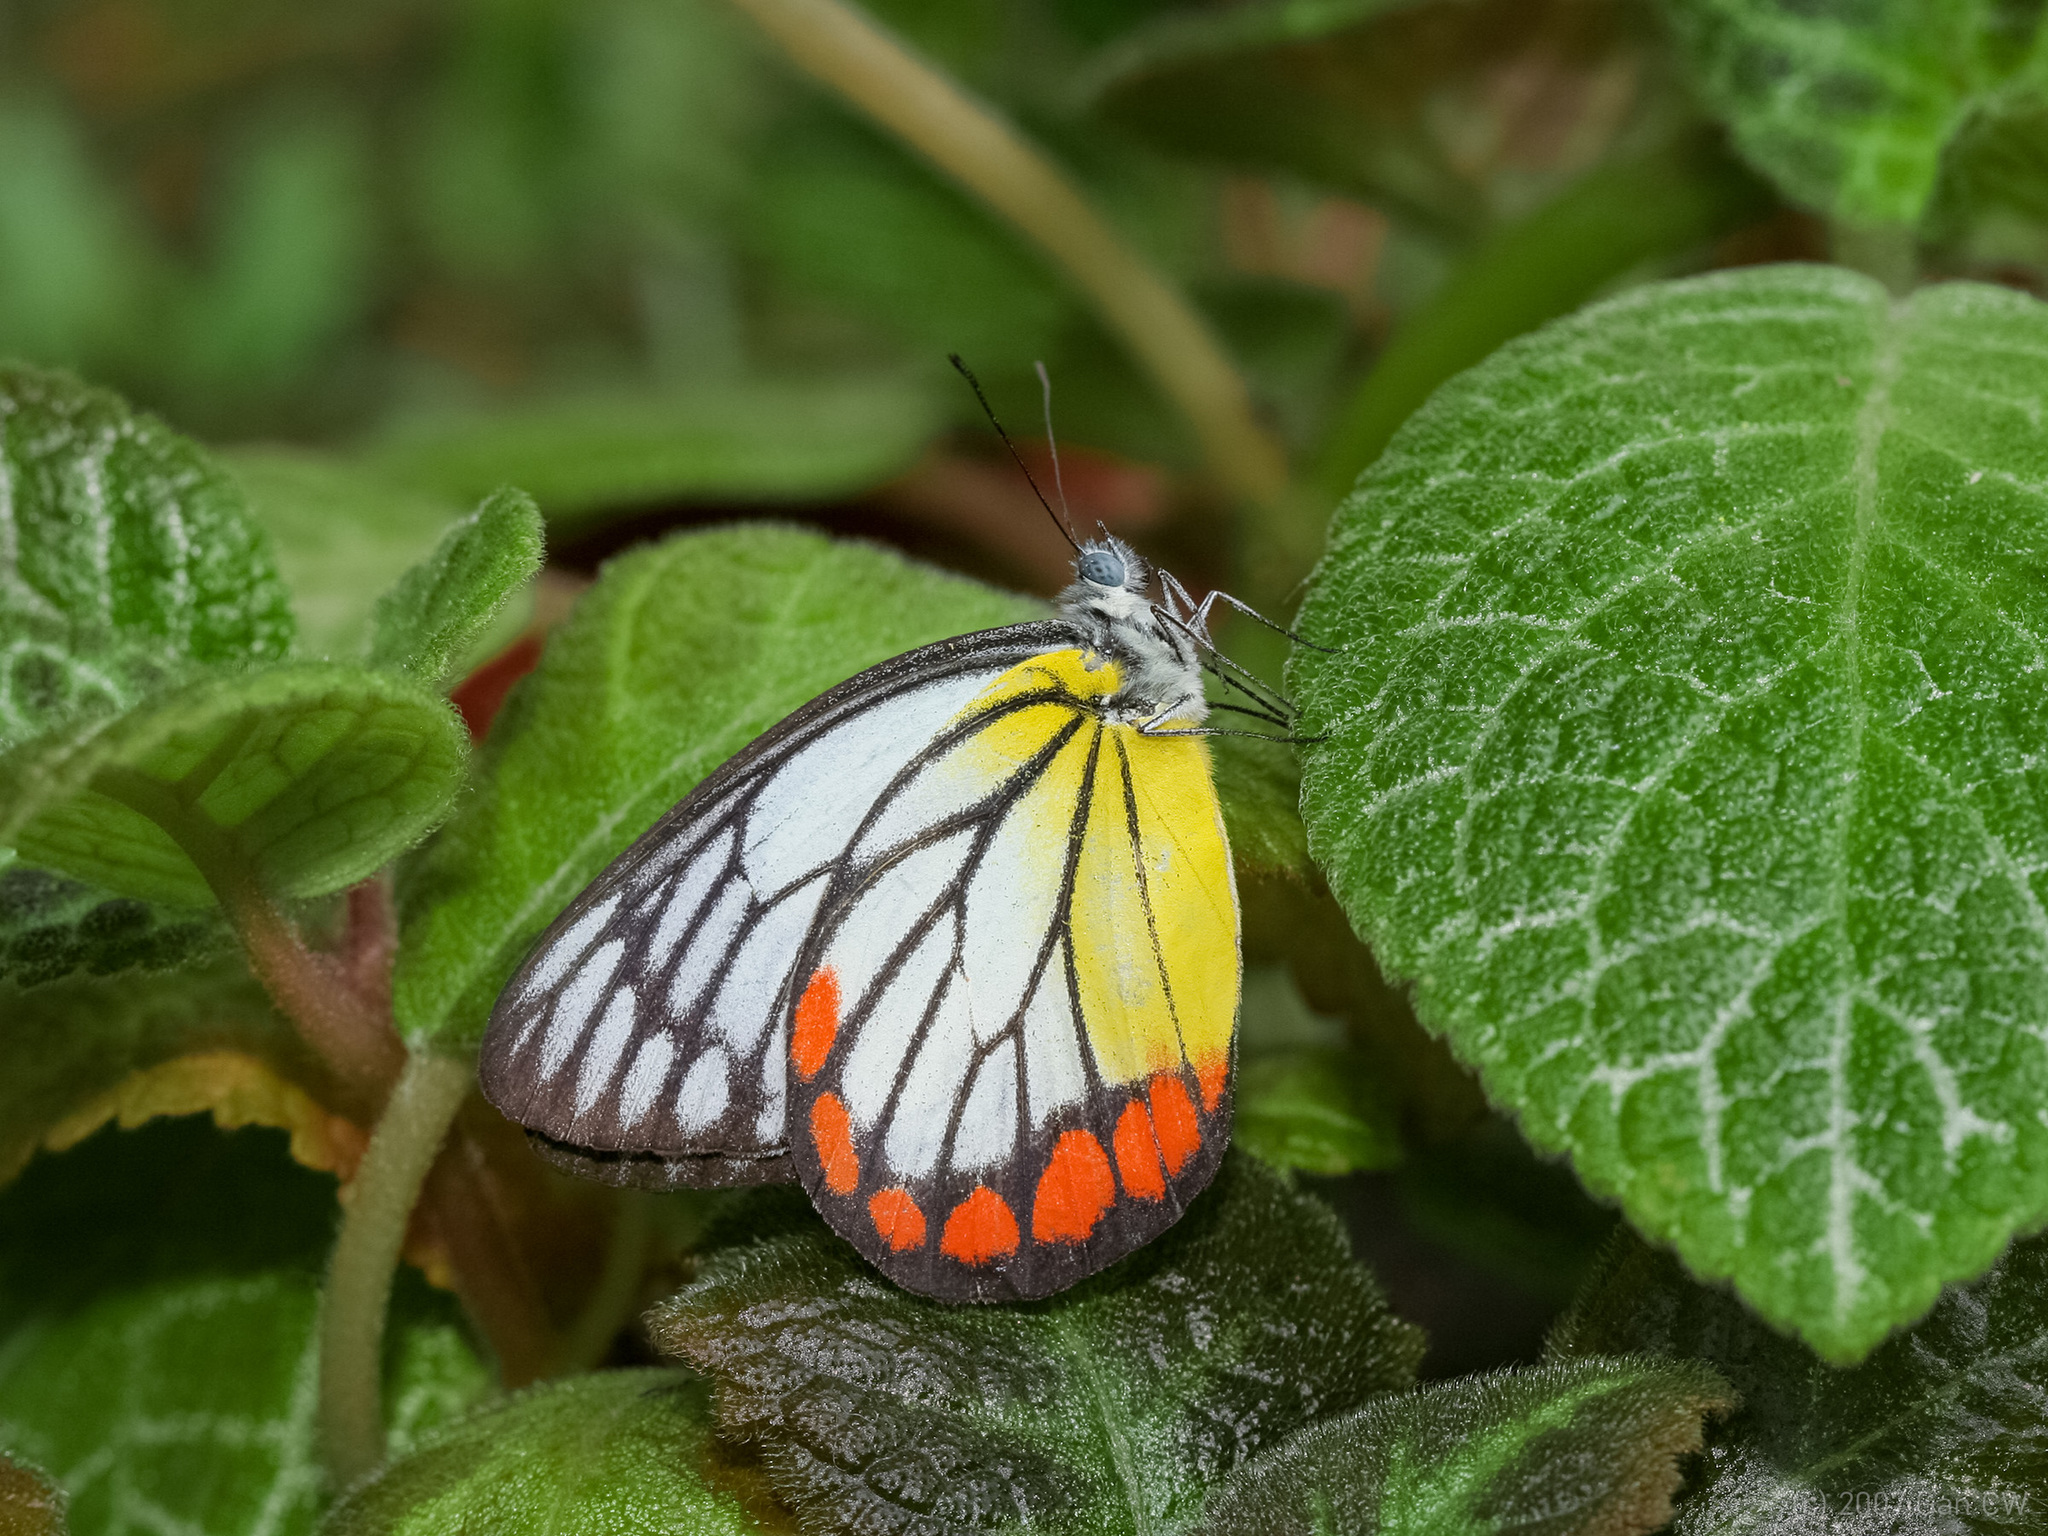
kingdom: Animalia
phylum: Arthropoda
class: Insecta
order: Lepidoptera
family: Pieridae
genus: Delias
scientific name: Delias hyparete
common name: Painted jezebel
